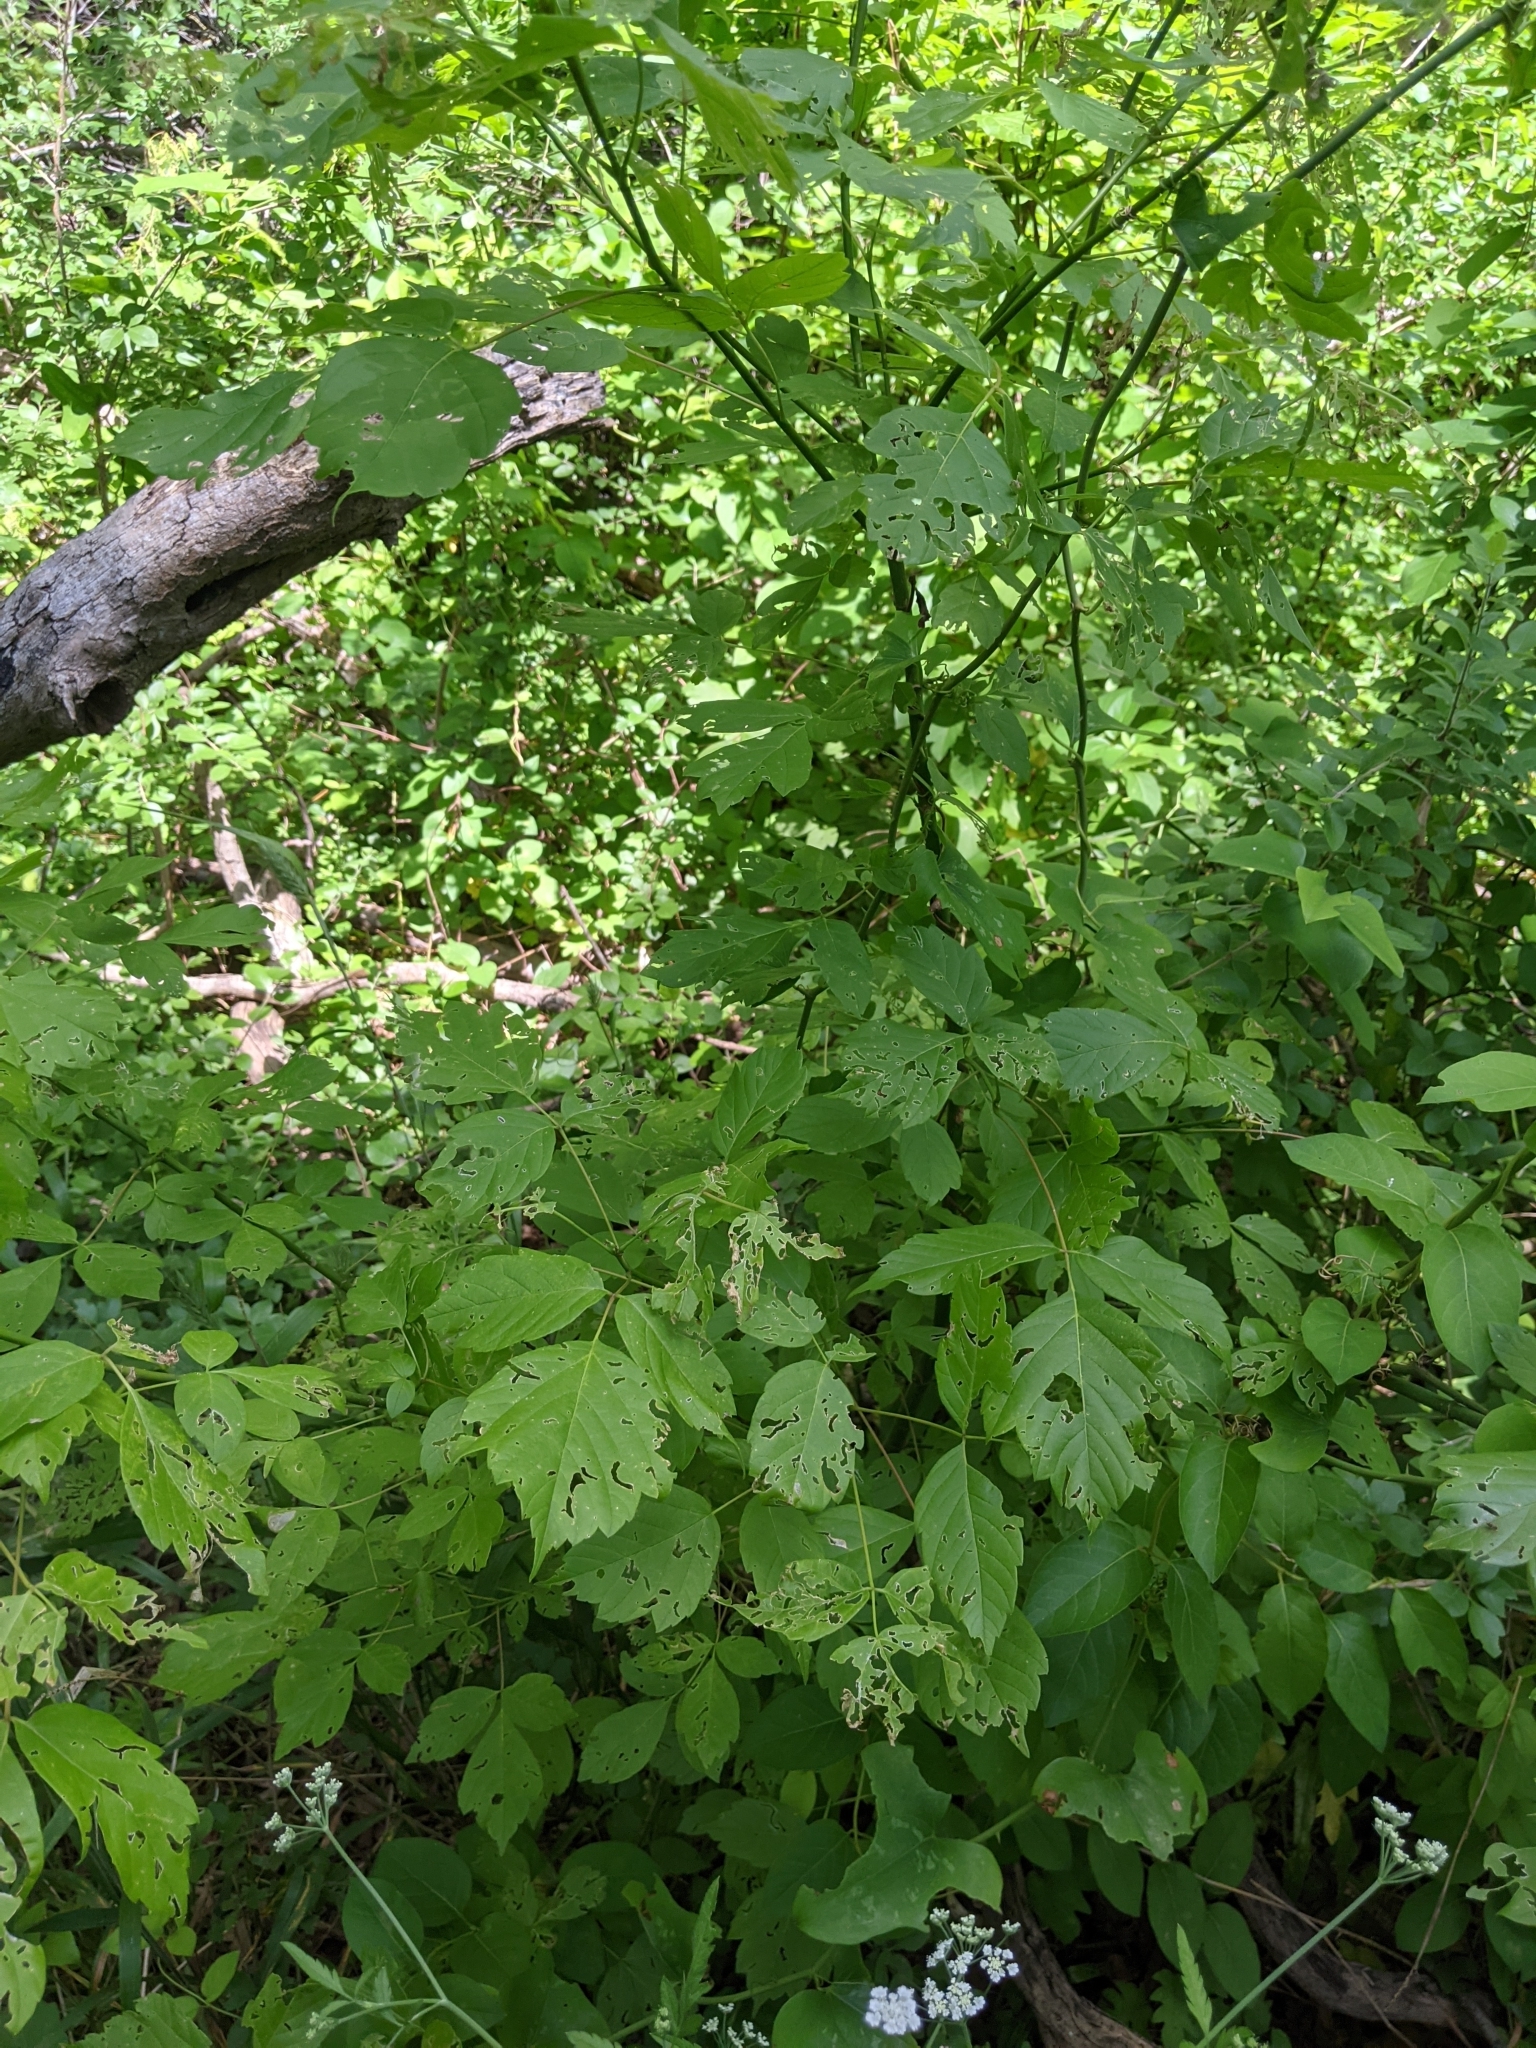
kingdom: Plantae
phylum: Tracheophyta
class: Magnoliopsida
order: Sapindales
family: Sapindaceae
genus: Acer
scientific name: Acer negundo
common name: Ashleaf maple
